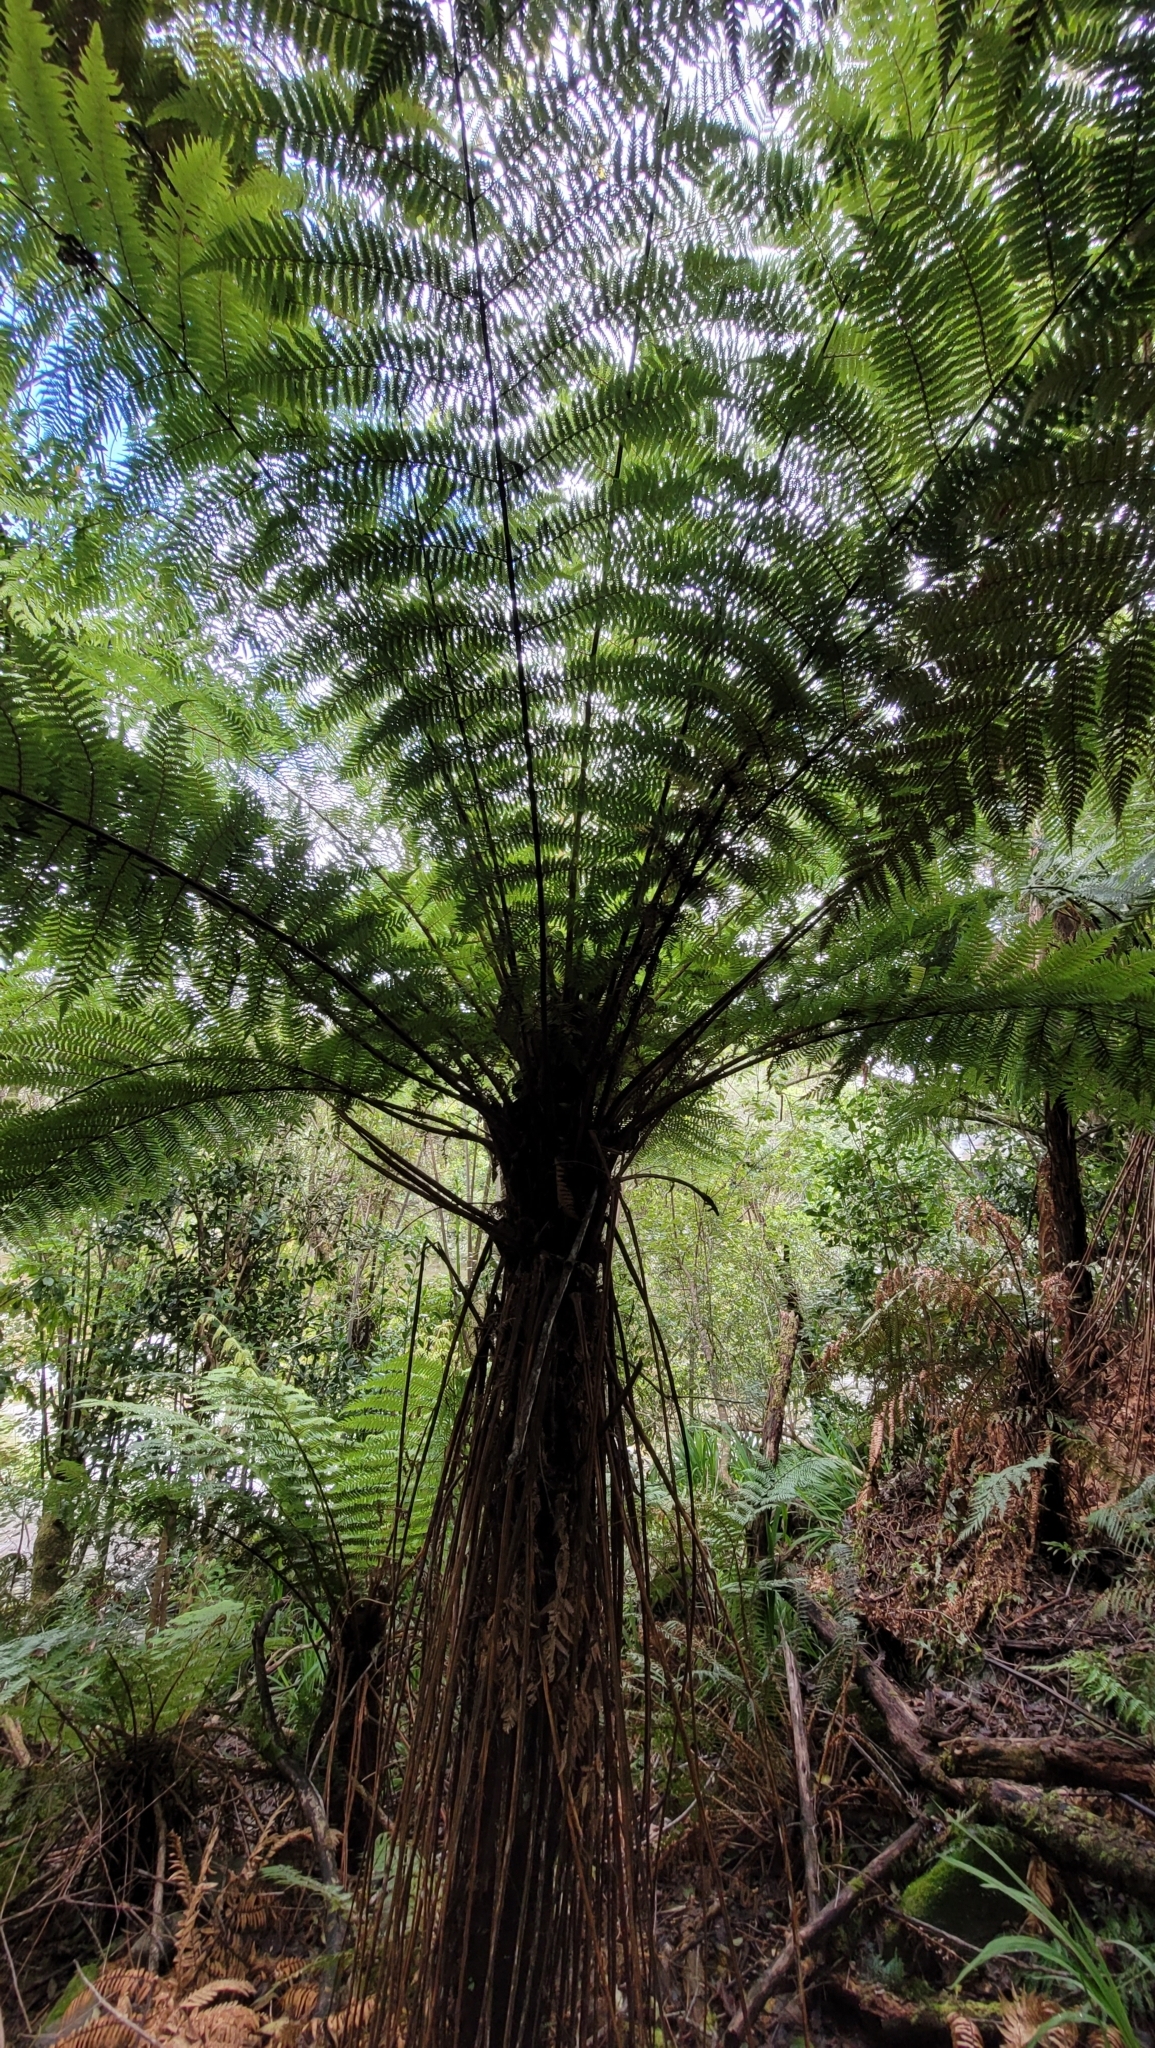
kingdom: Plantae
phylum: Tracheophyta
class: Polypodiopsida
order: Cyatheales
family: Cyatheaceae
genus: Alsophila
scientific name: Alsophila smithii
